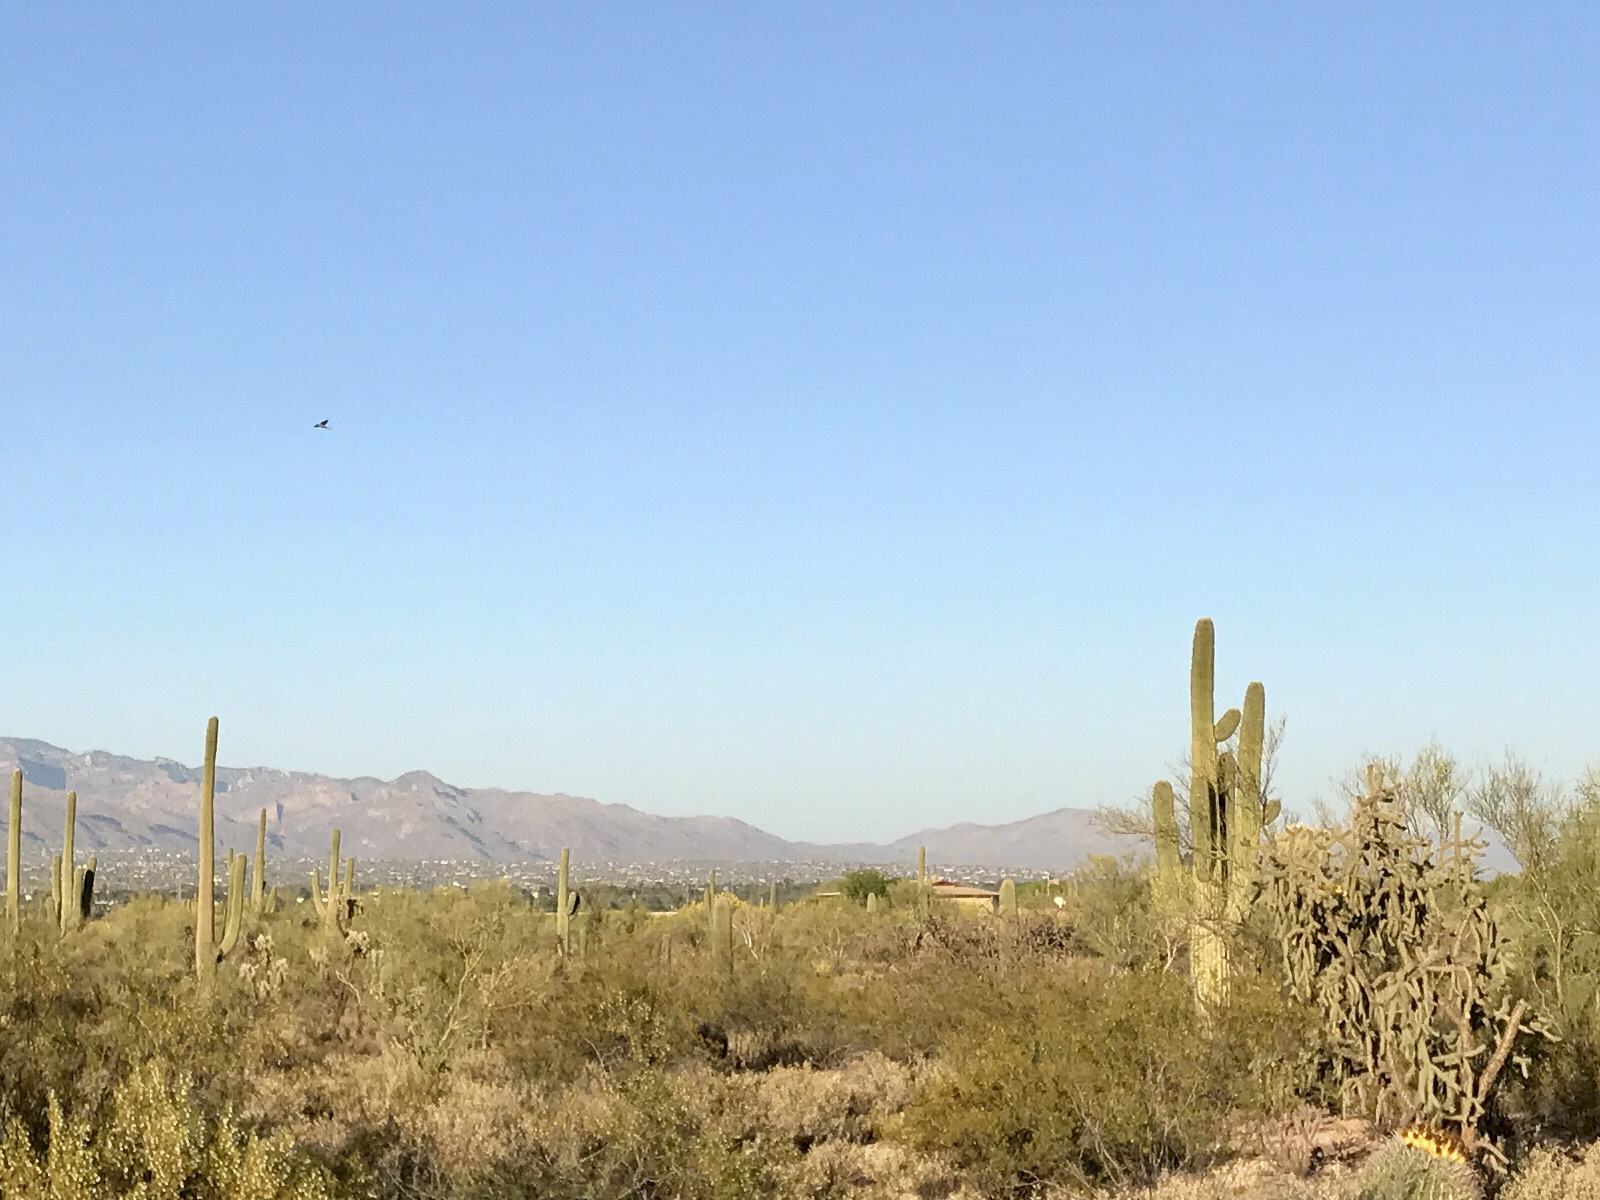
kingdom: Plantae
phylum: Tracheophyta
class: Magnoliopsida
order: Caryophyllales
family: Cactaceae
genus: Carnegiea
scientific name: Carnegiea gigantea
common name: Saguaro
